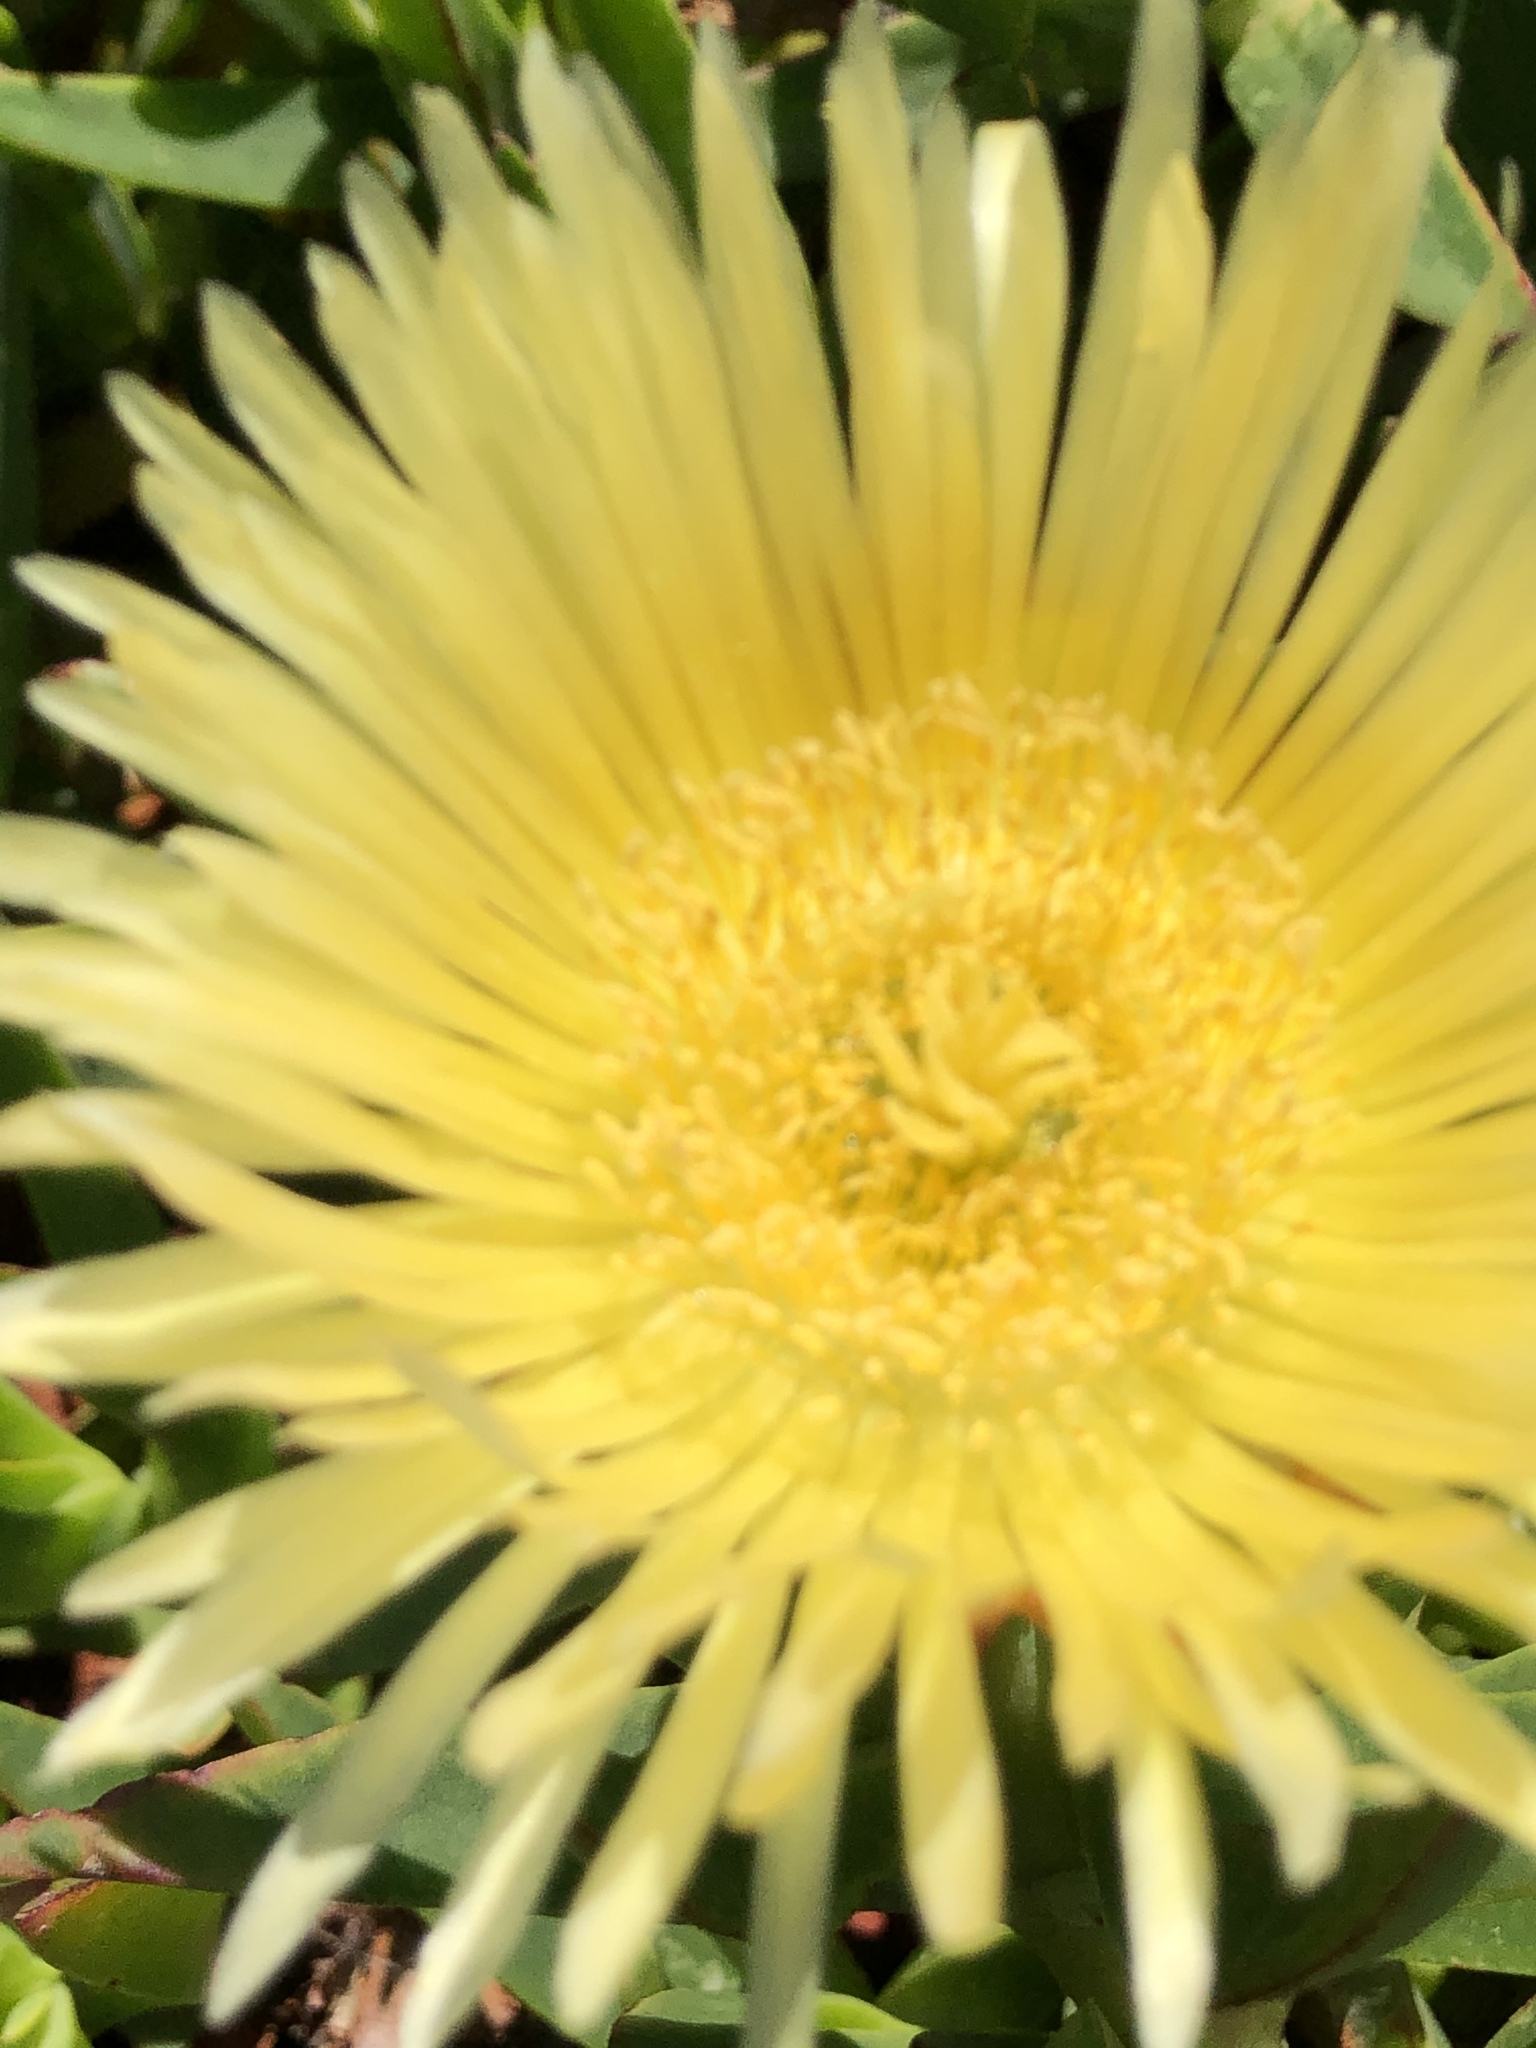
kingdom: Plantae
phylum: Tracheophyta
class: Magnoliopsida
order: Caryophyllales
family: Aizoaceae
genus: Carpobrotus
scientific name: Carpobrotus edulis
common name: Hottentot-fig
